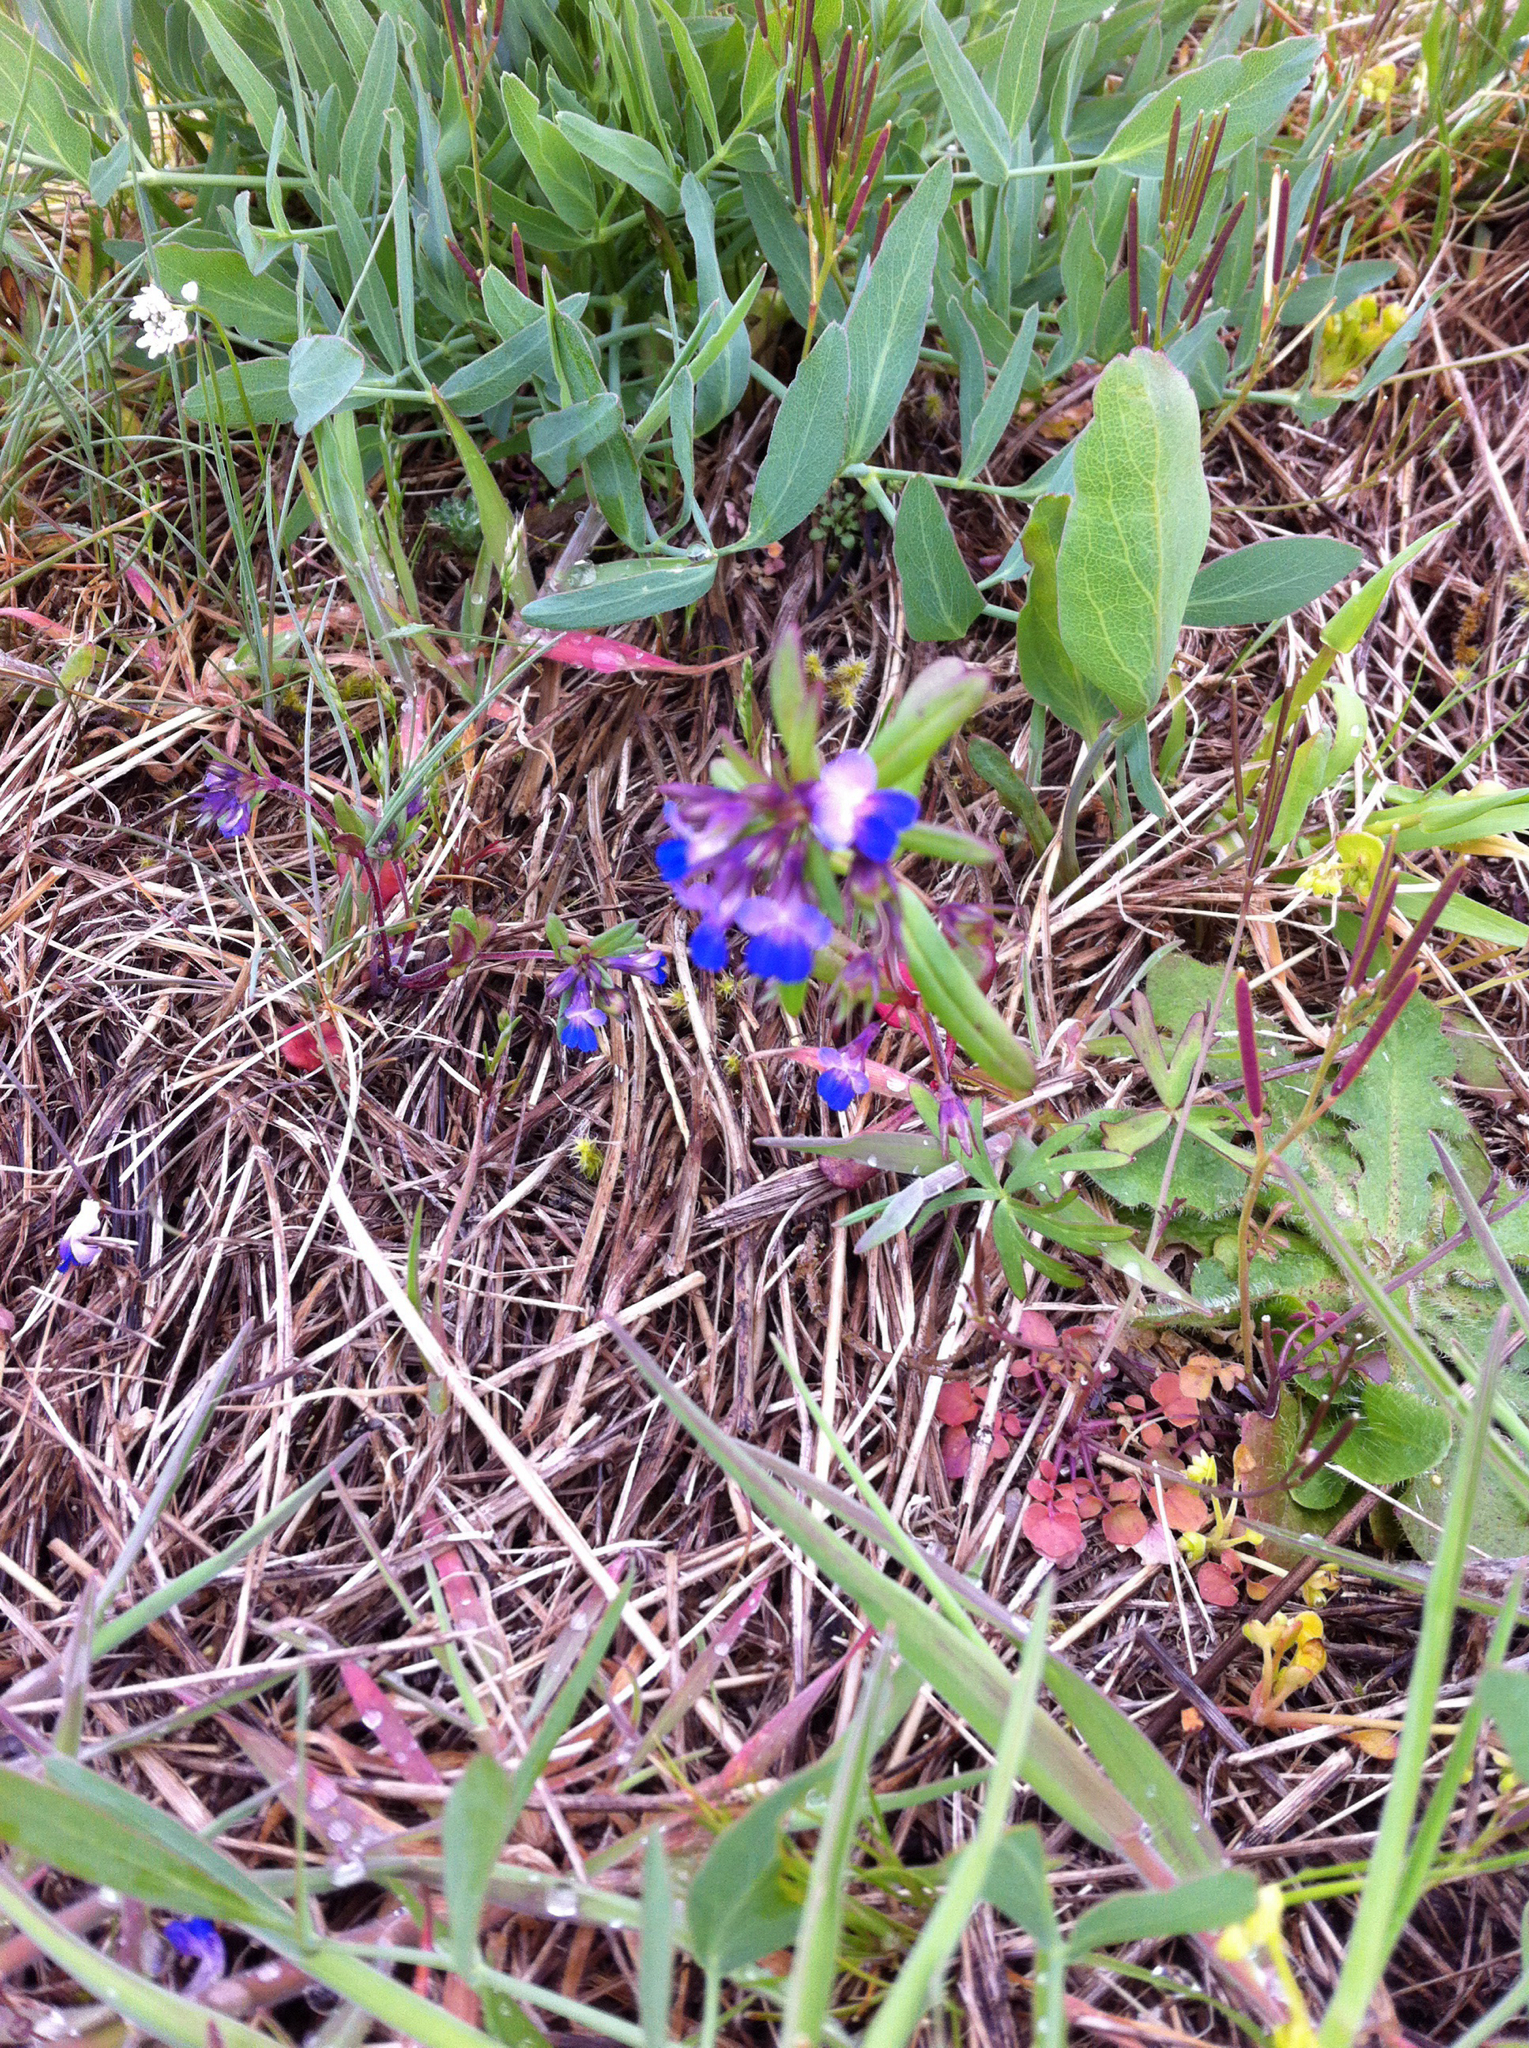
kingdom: Plantae
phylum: Tracheophyta
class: Magnoliopsida
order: Lamiales
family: Plantaginaceae
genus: Collinsia
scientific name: Collinsia parviflora
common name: Blue-lips
